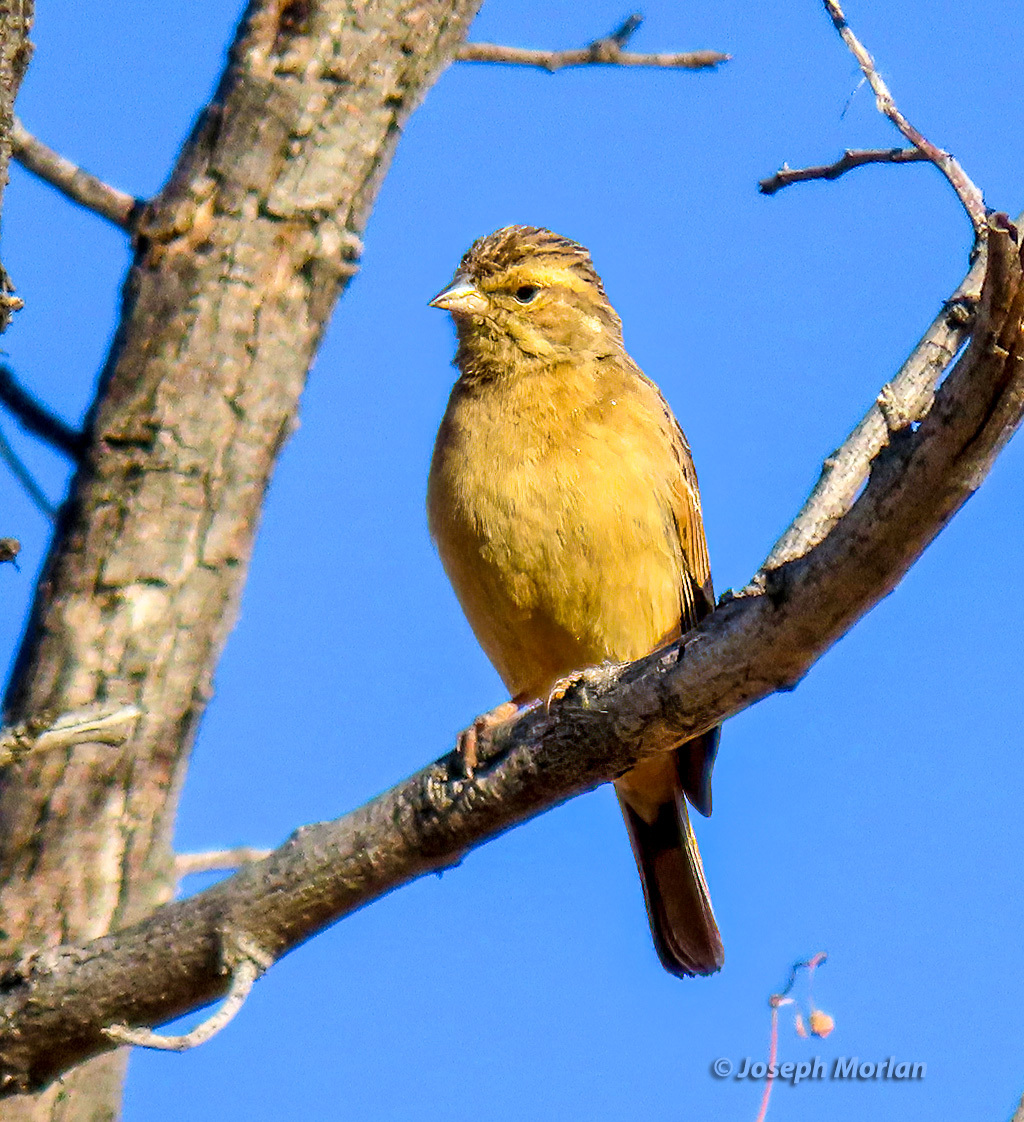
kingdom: Animalia
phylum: Chordata
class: Aves
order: Passeriformes
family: Emberizidae
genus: Emberiza
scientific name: Emberiza impetuani
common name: Lark-like bunting
